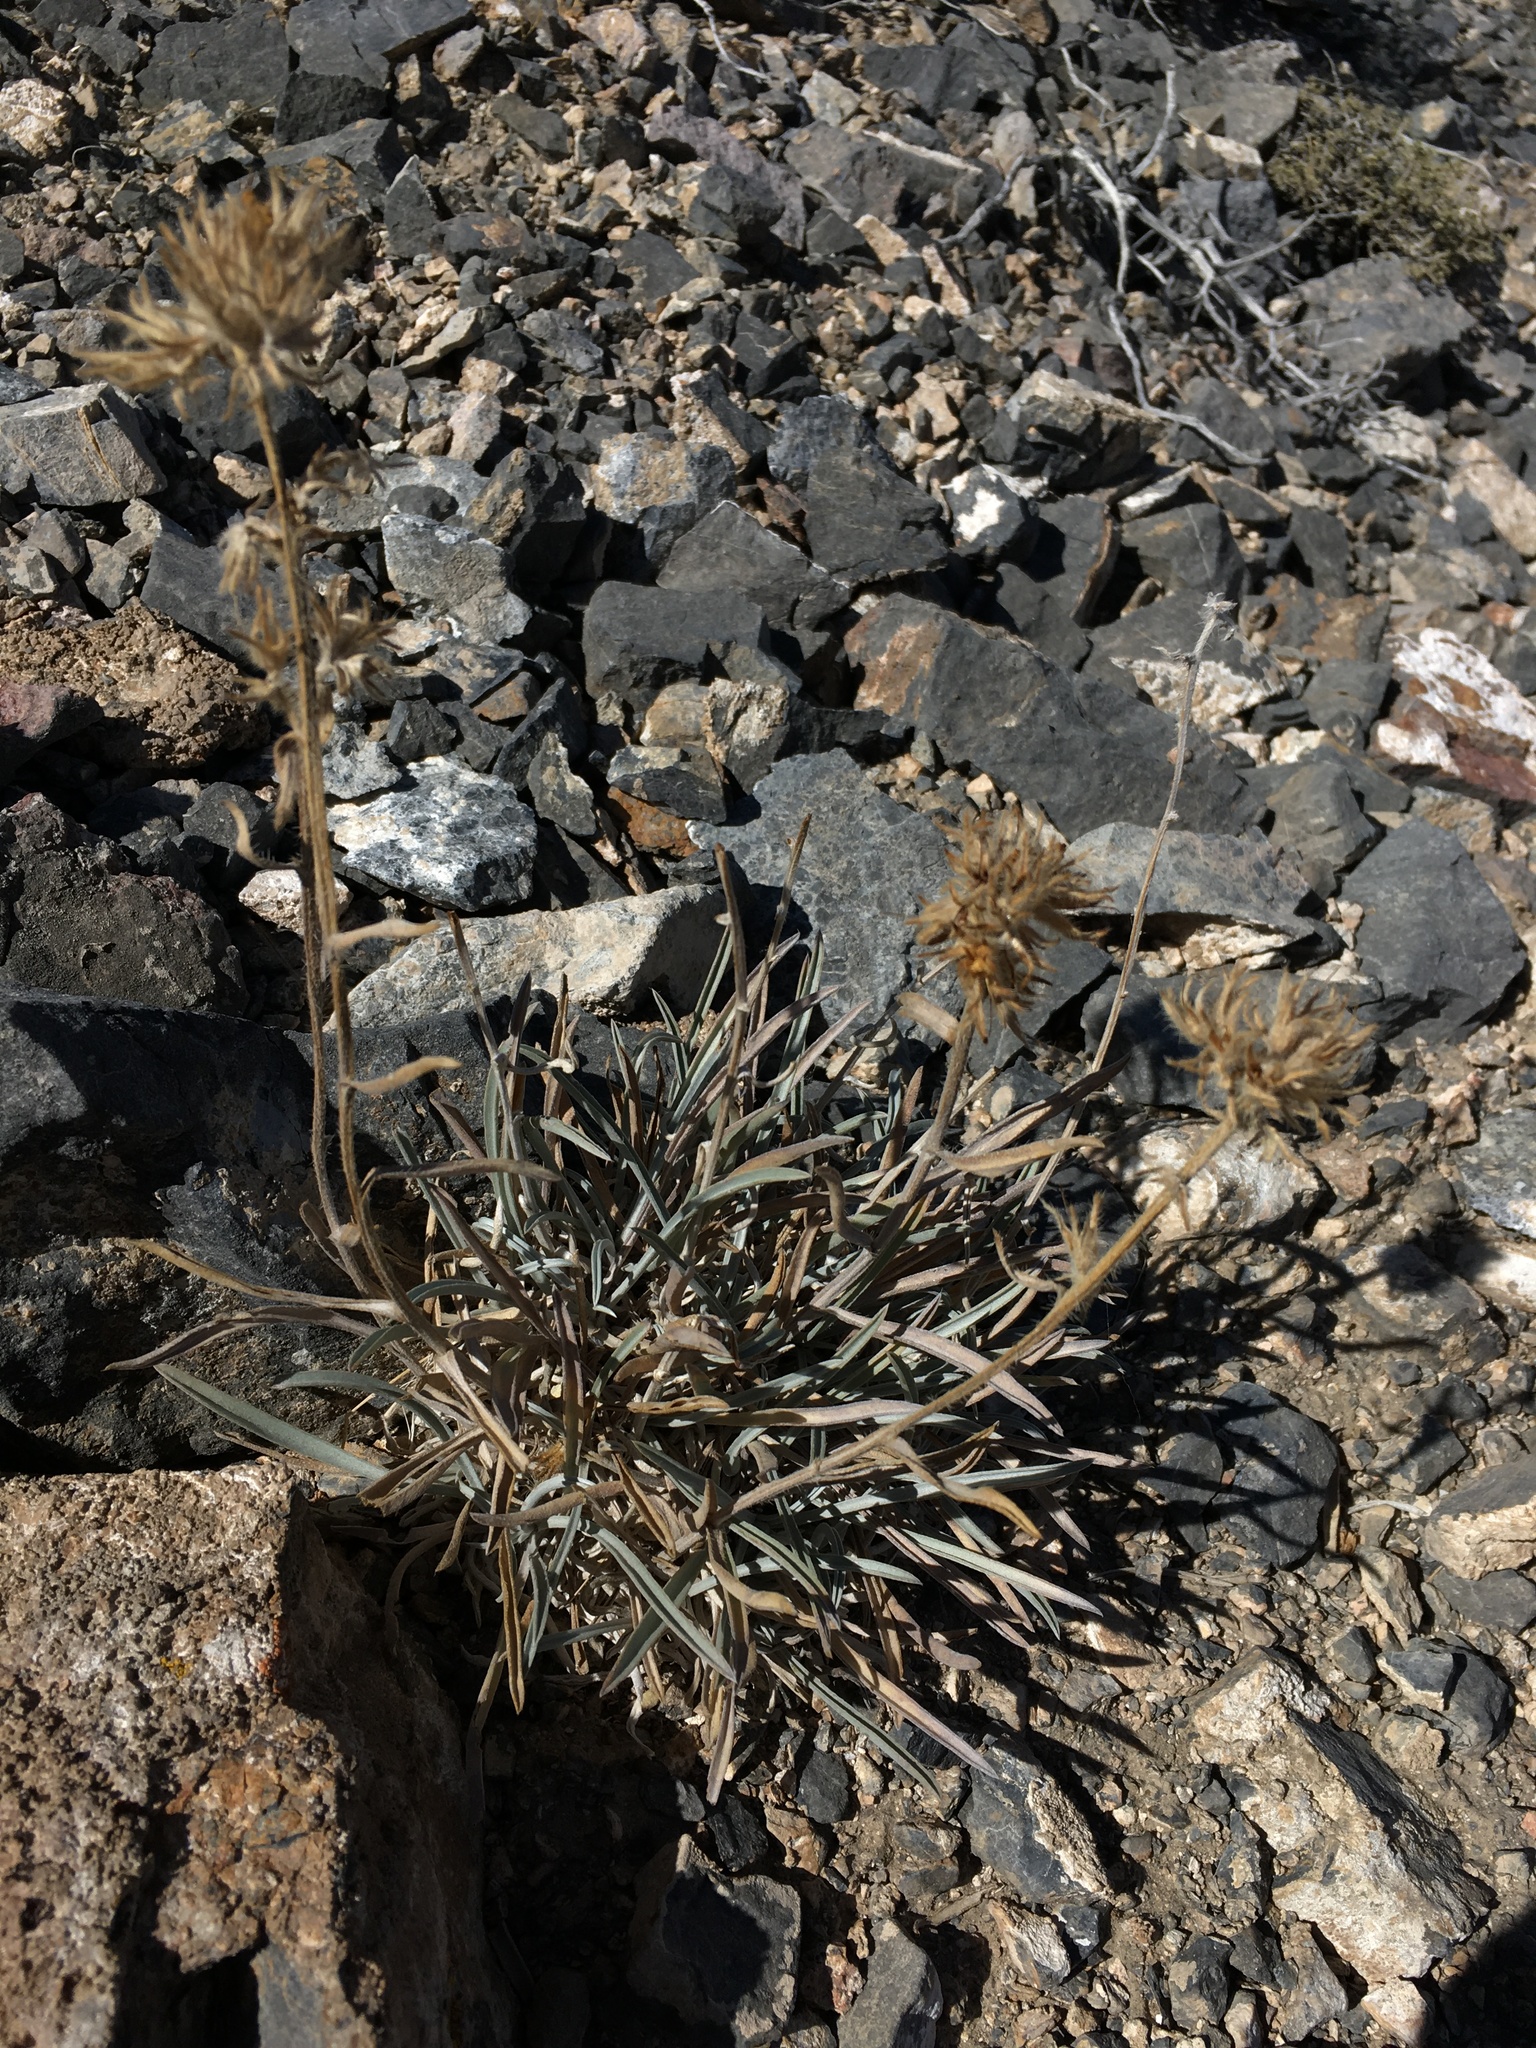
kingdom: Plantae
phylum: Tracheophyta
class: Magnoliopsida
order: Boraginales
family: Boraginaceae
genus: Oreocarya
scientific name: Oreocarya confertiflora
